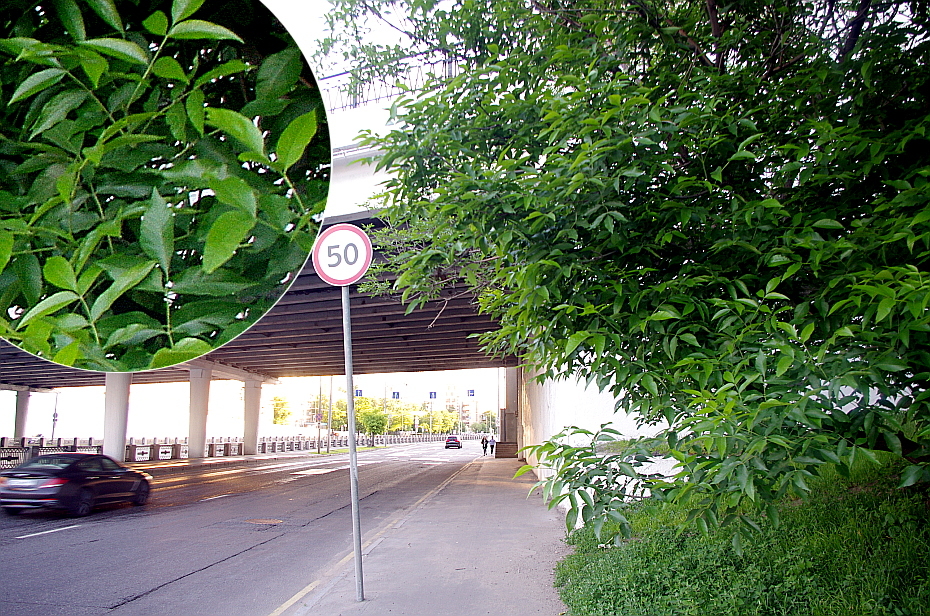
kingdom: Plantae
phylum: Tracheophyta
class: Magnoliopsida
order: Lamiales
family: Oleaceae
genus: Fraxinus
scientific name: Fraxinus pennsylvanica
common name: Green ash
